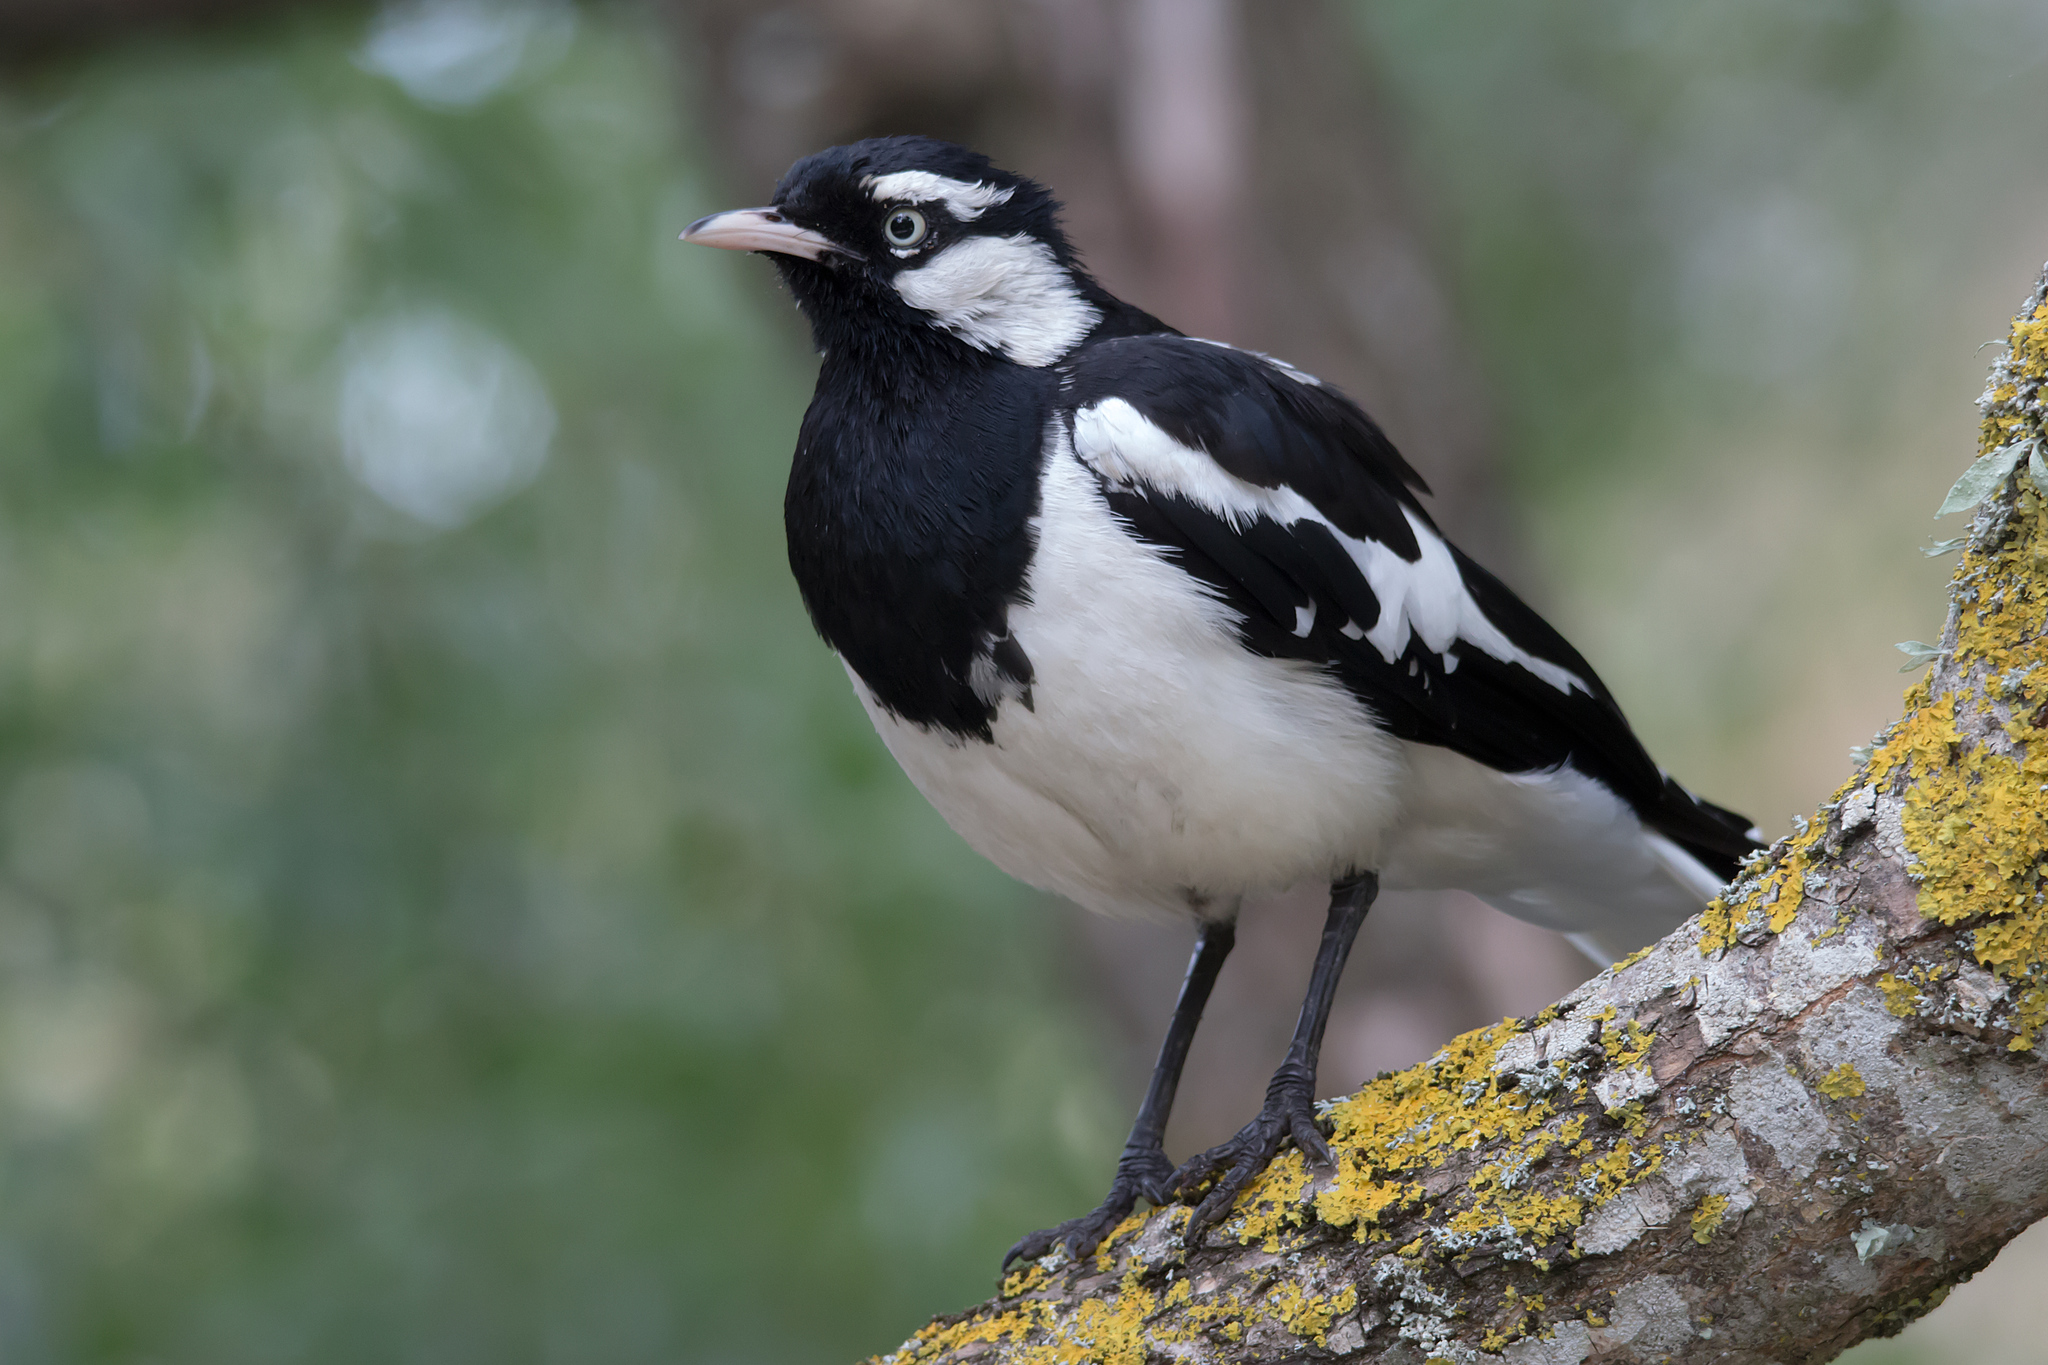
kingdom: Animalia
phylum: Chordata
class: Aves
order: Passeriformes
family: Monarchidae
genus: Grallina
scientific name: Grallina cyanoleuca
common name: Magpie-lark
